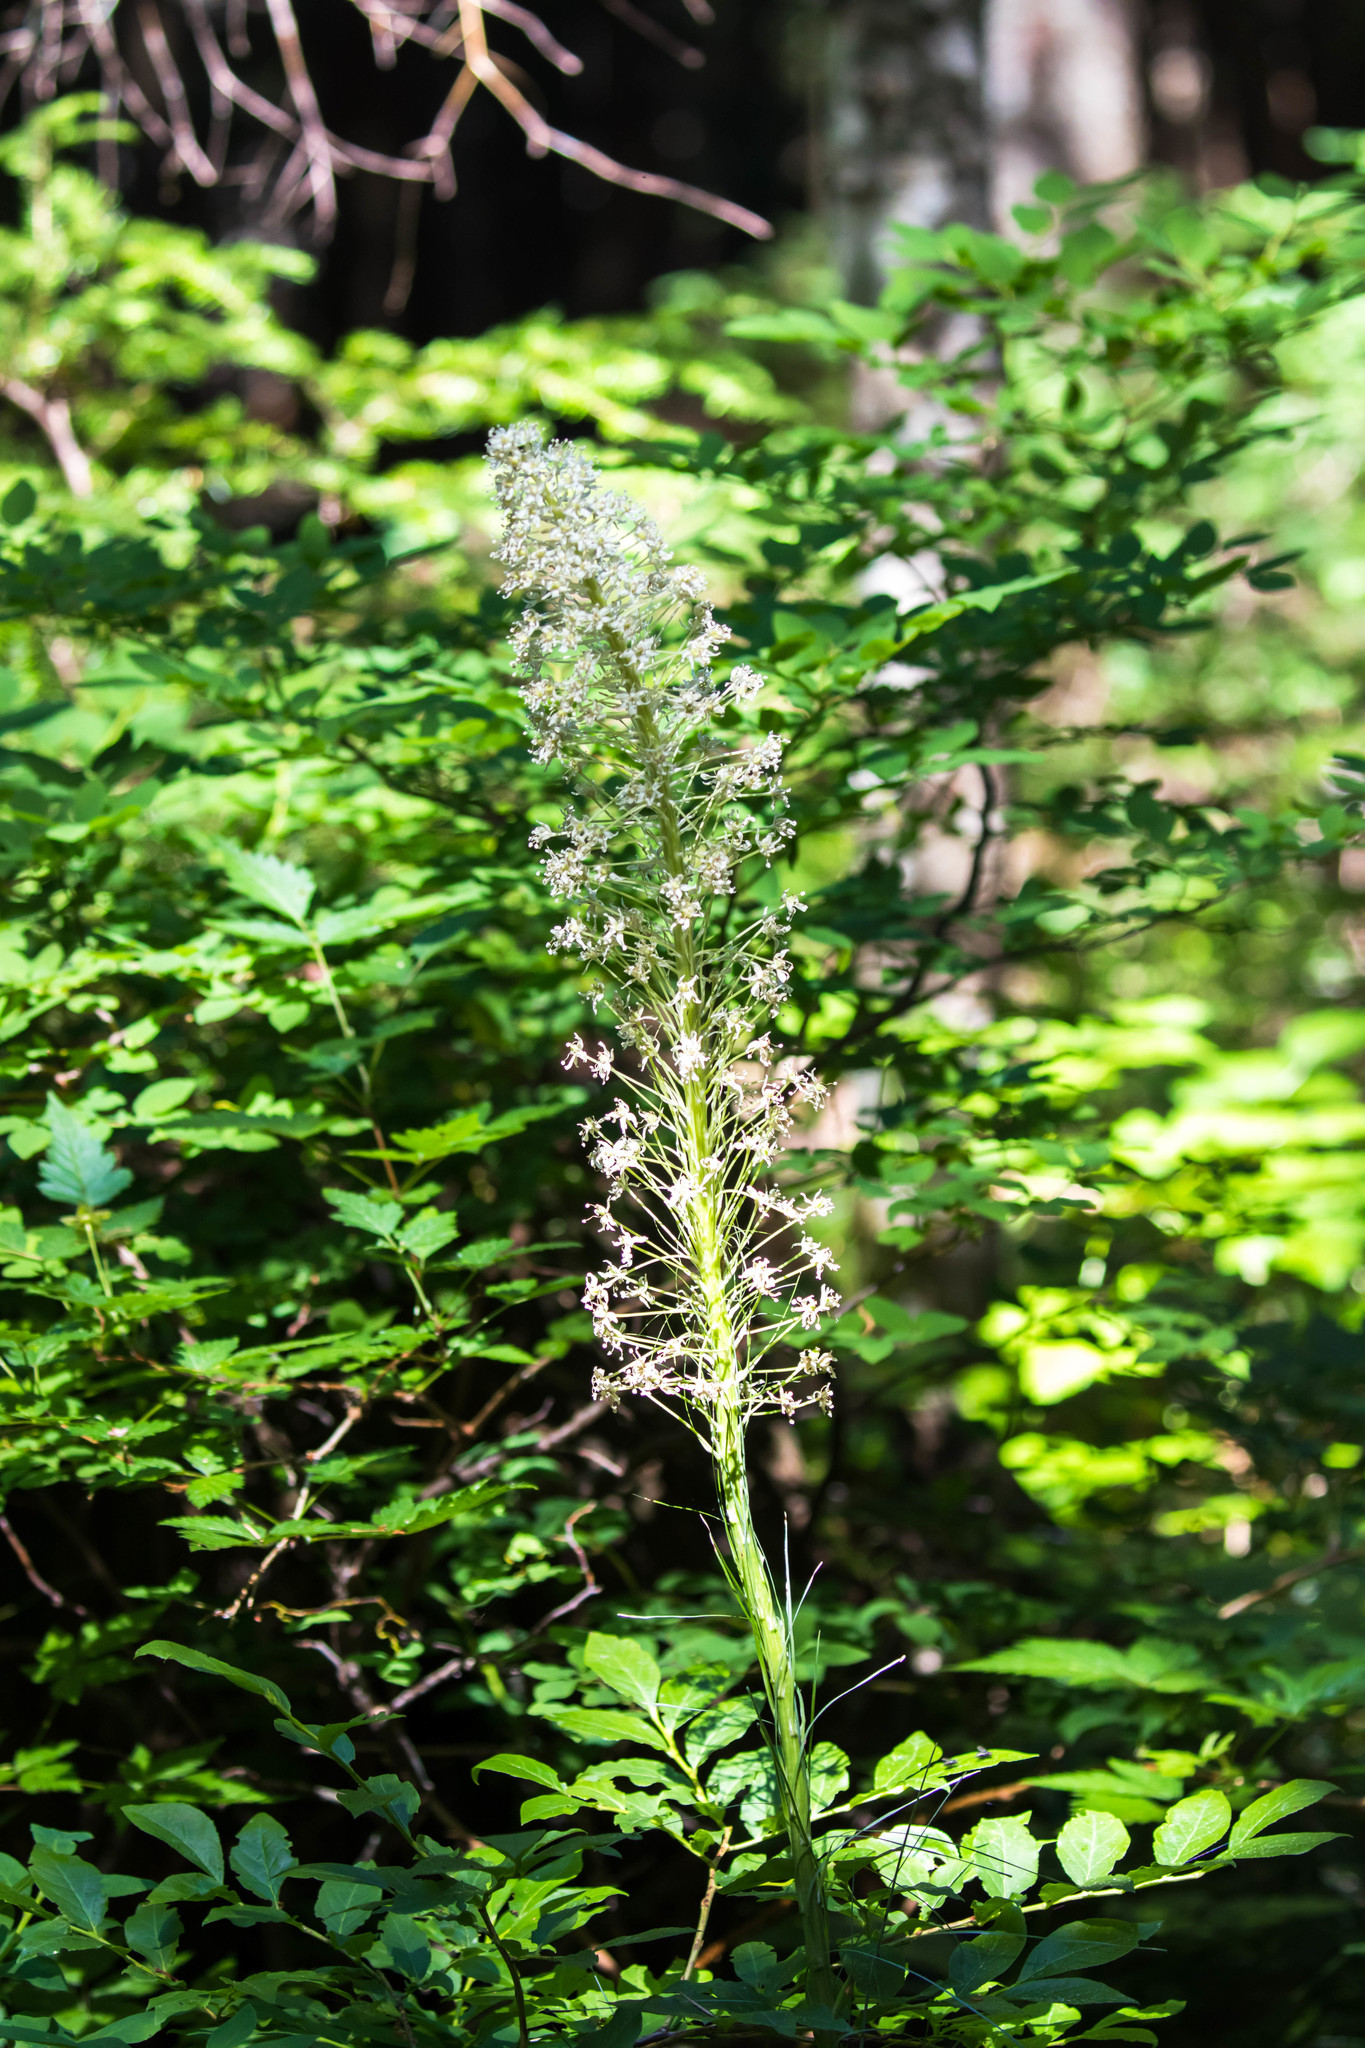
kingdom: Plantae
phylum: Tracheophyta
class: Liliopsida
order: Liliales
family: Melanthiaceae
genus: Xerophyllum
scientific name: Xerophyllum tenax
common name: Bear-grass
